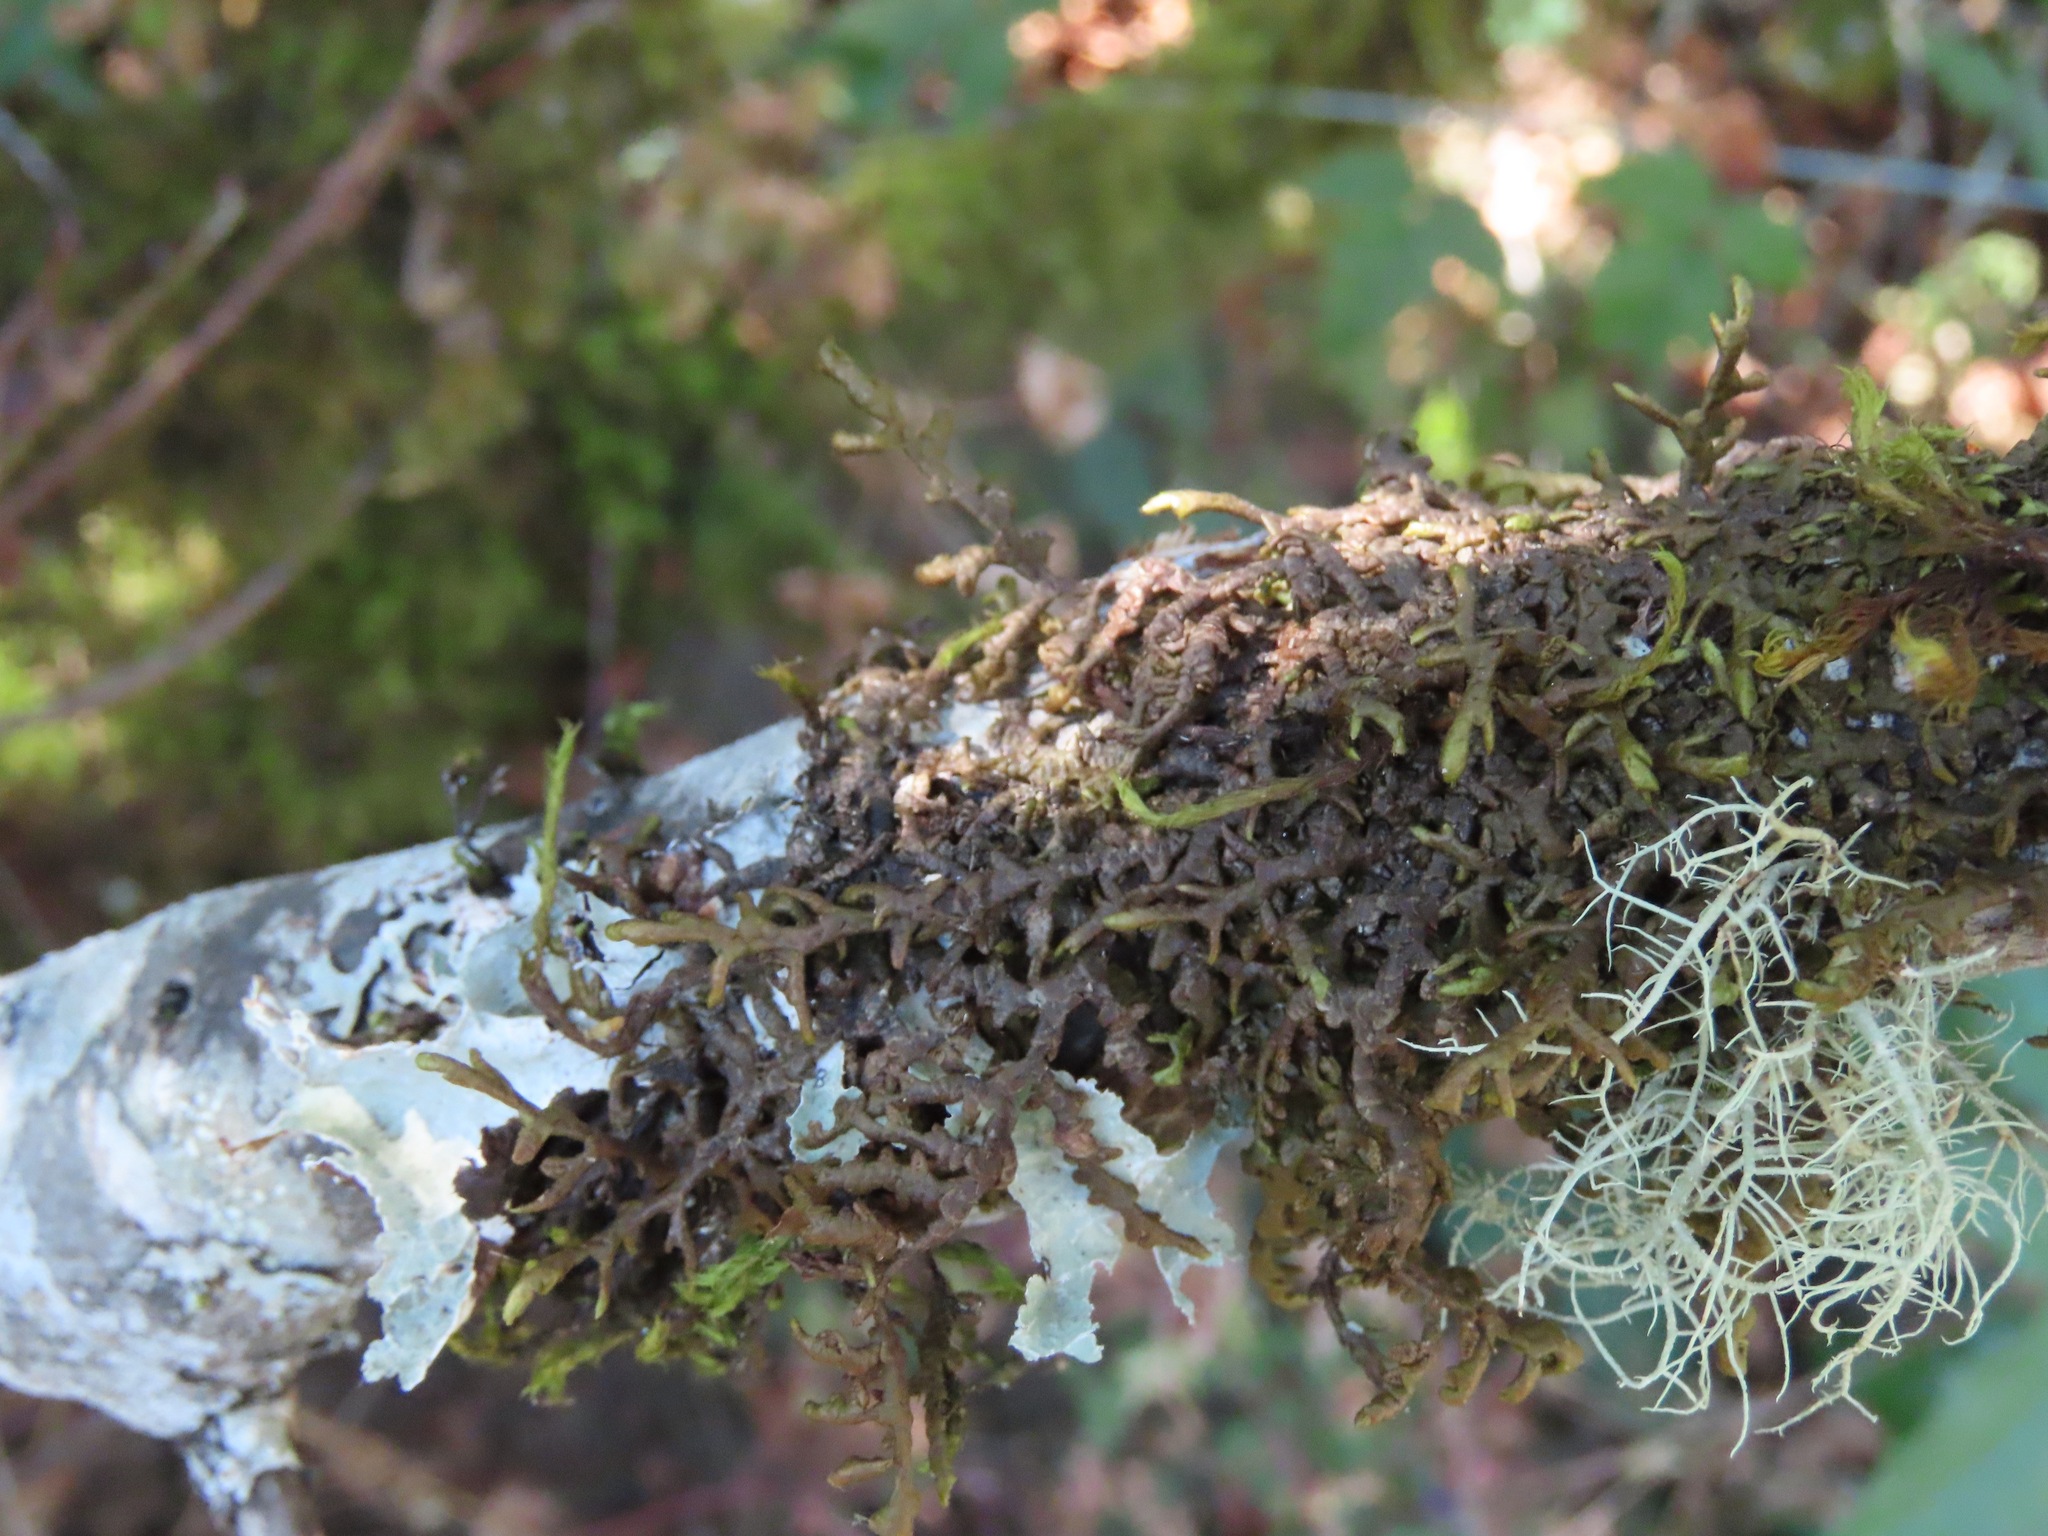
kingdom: Plantae
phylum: Marchantiophyta
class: Jungermanniopsida
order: Porellales
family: Porellaceae
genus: Porella
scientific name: Porella navicularis
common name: Tree ruffle liverwort
